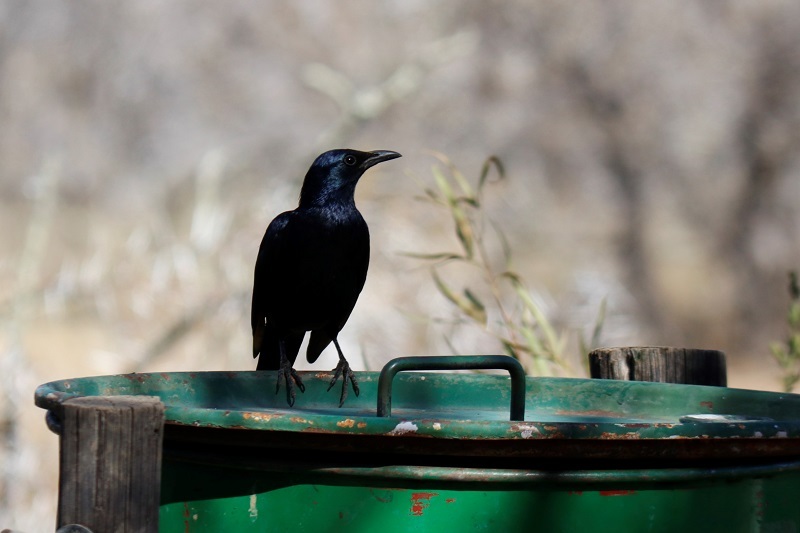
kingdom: Animalia
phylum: Chordata
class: Aves
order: Passeriformes
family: Sturnidae
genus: Onychognathus
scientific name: Onychognathus morio
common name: Red-winged starling
